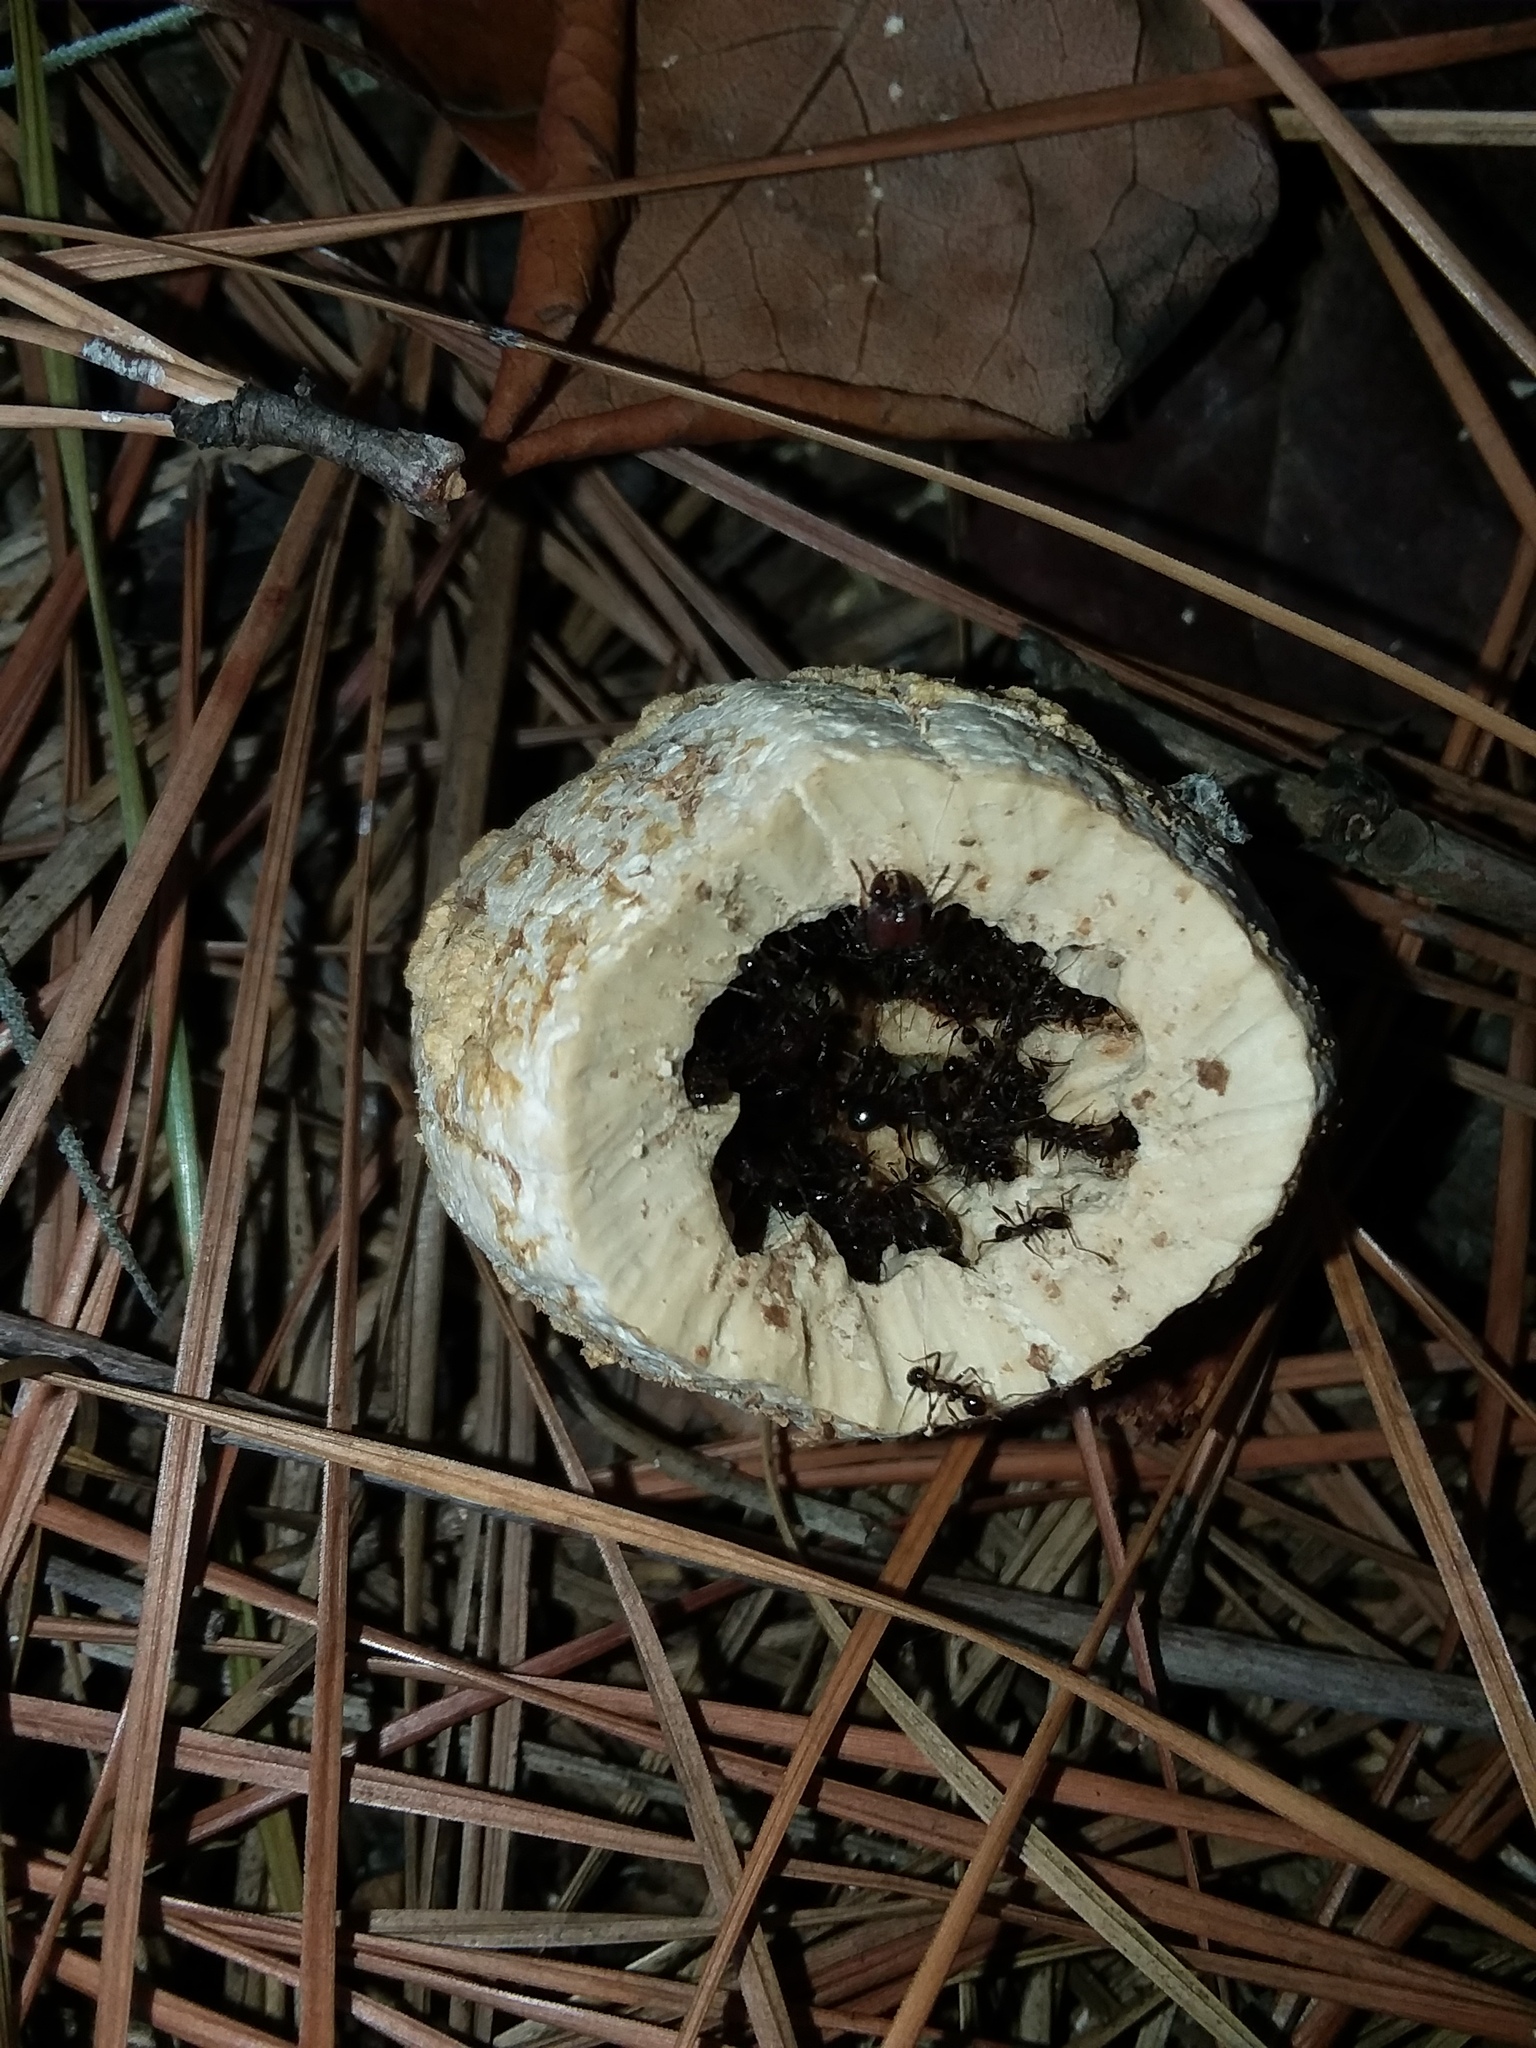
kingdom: Animalia
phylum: Arthropoda
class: Insecta
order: Hymenoptera
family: Formicidae
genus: Pheidole
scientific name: Pheidole obscurithorax
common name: Obscure big-headed ant
